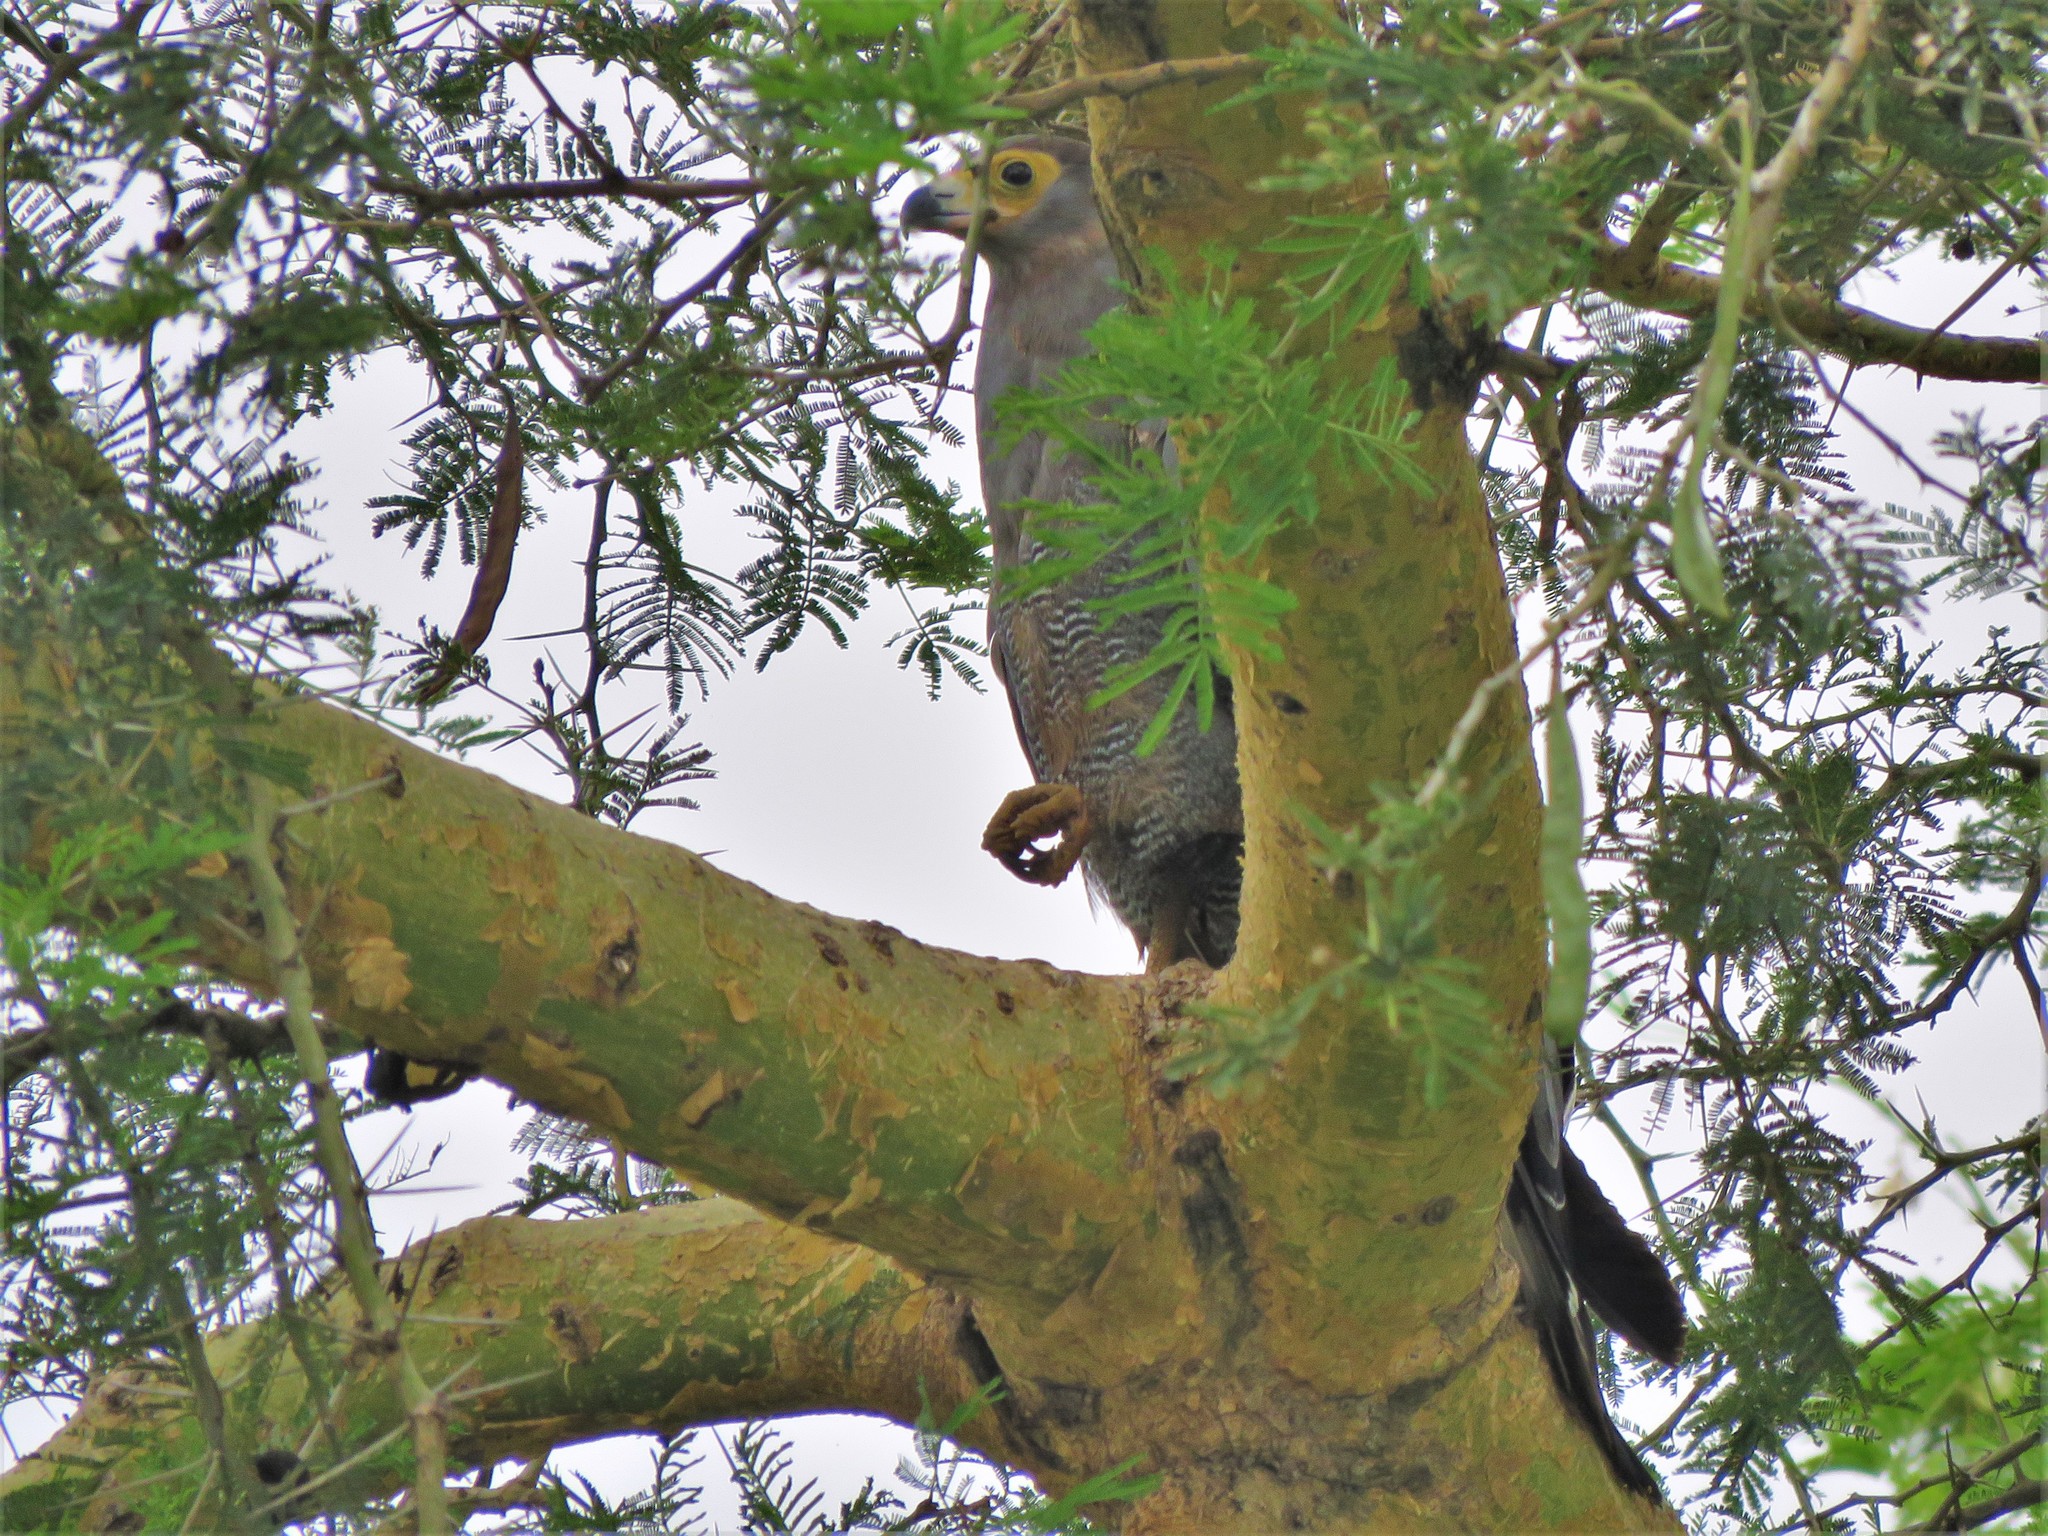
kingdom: Animalia
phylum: Chordata
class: Aves
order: Accipitriformes
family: Accipitridae
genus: Polyboroides
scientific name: Polyboroides typus
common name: African harrier-hawk
